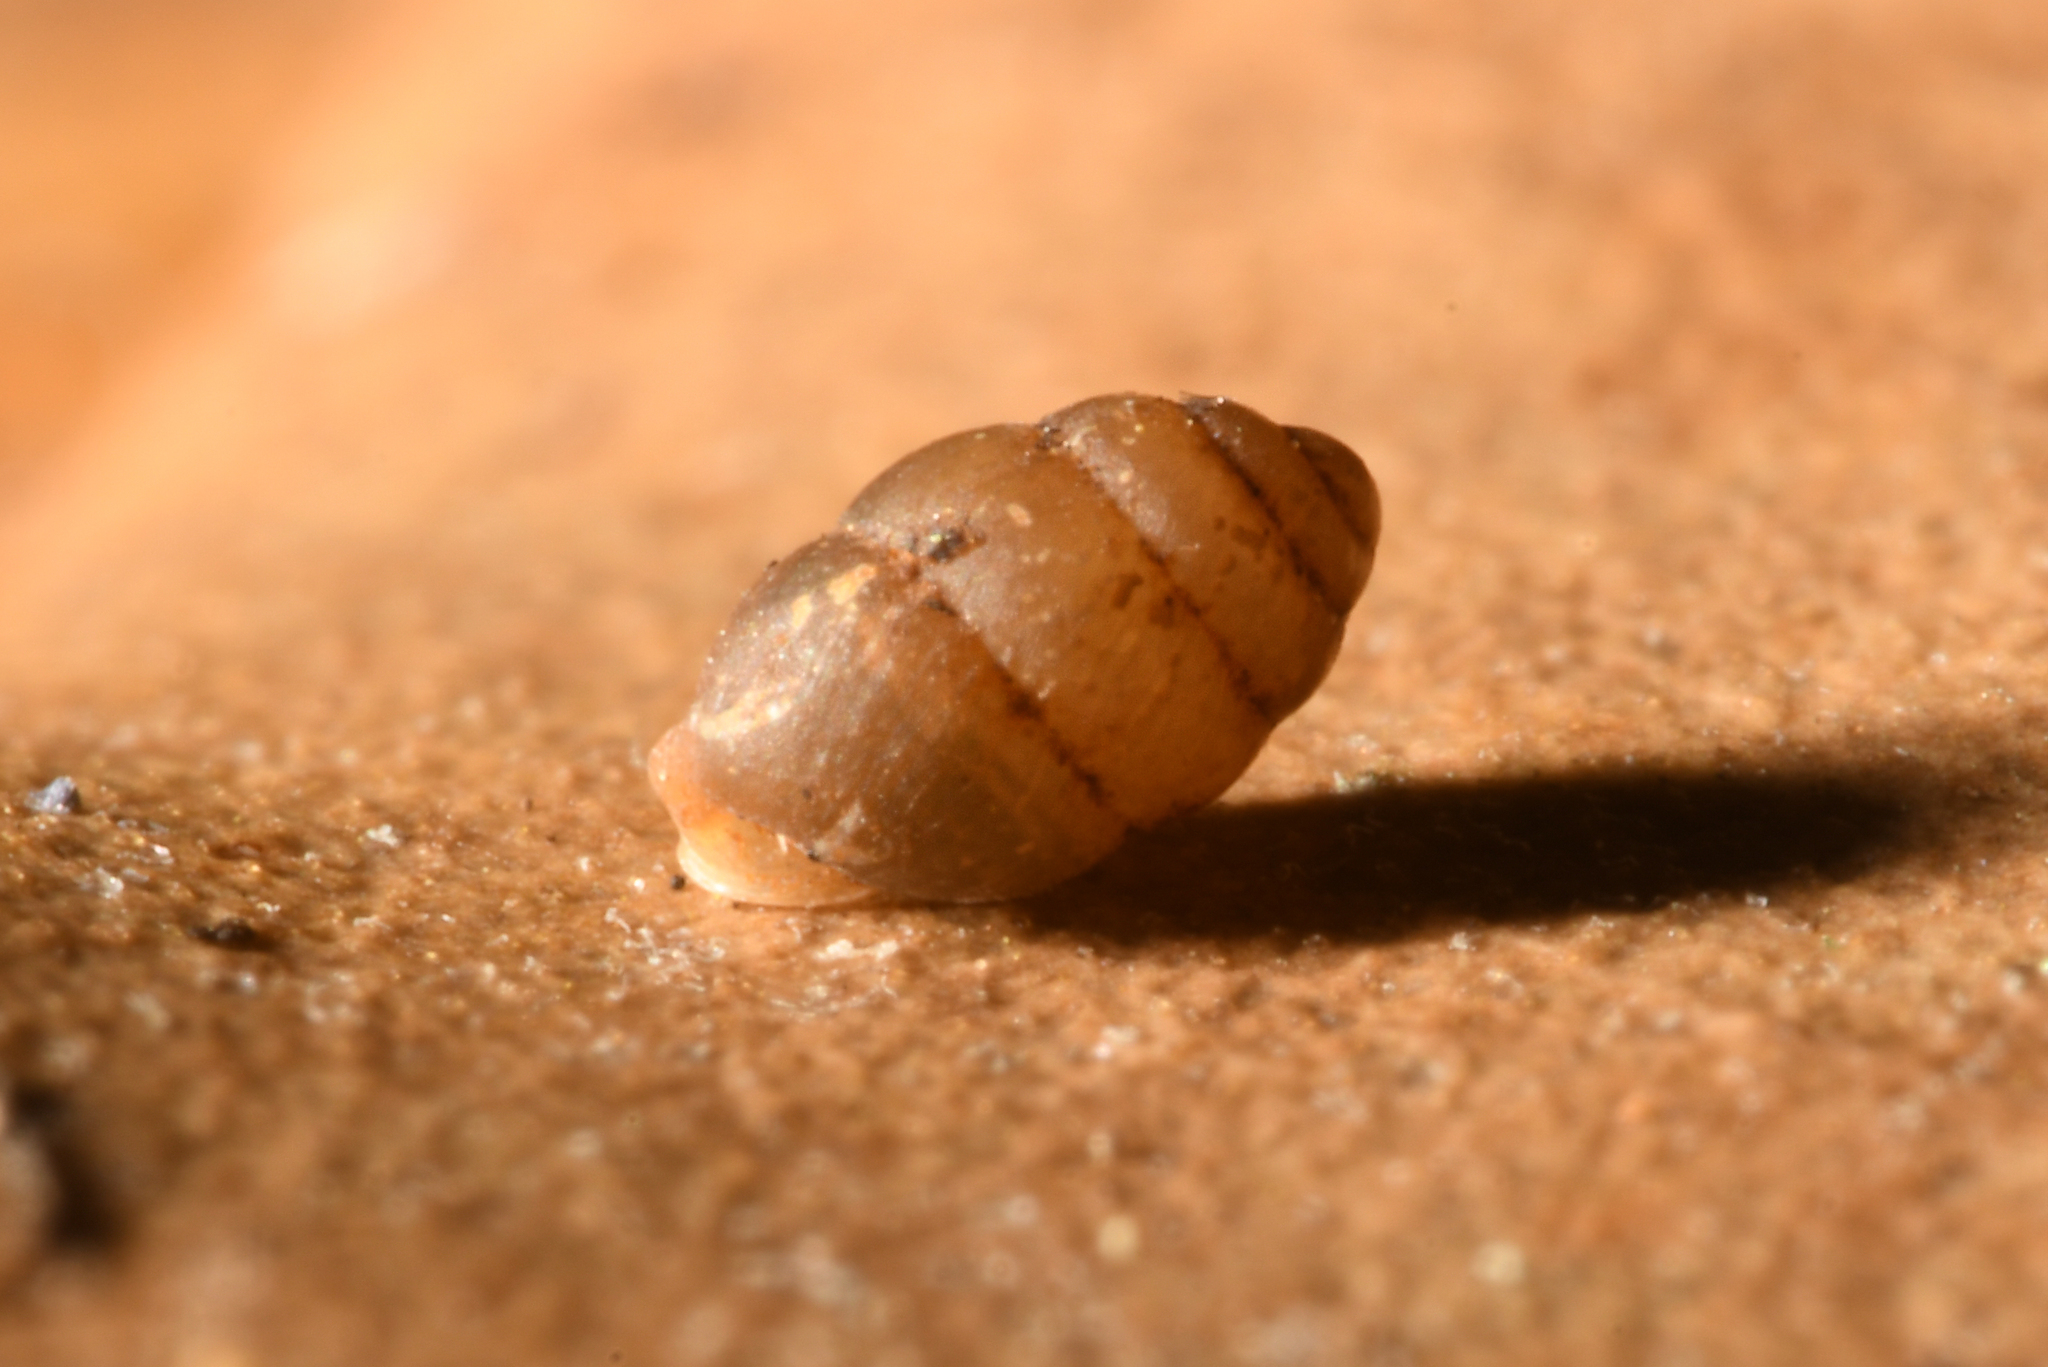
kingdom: Animalia
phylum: Mollusca
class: Gastropoda
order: Stylommatophora
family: Vertiginidae
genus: Vertigo
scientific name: Vertigo pygmaea
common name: Common whorl snail
